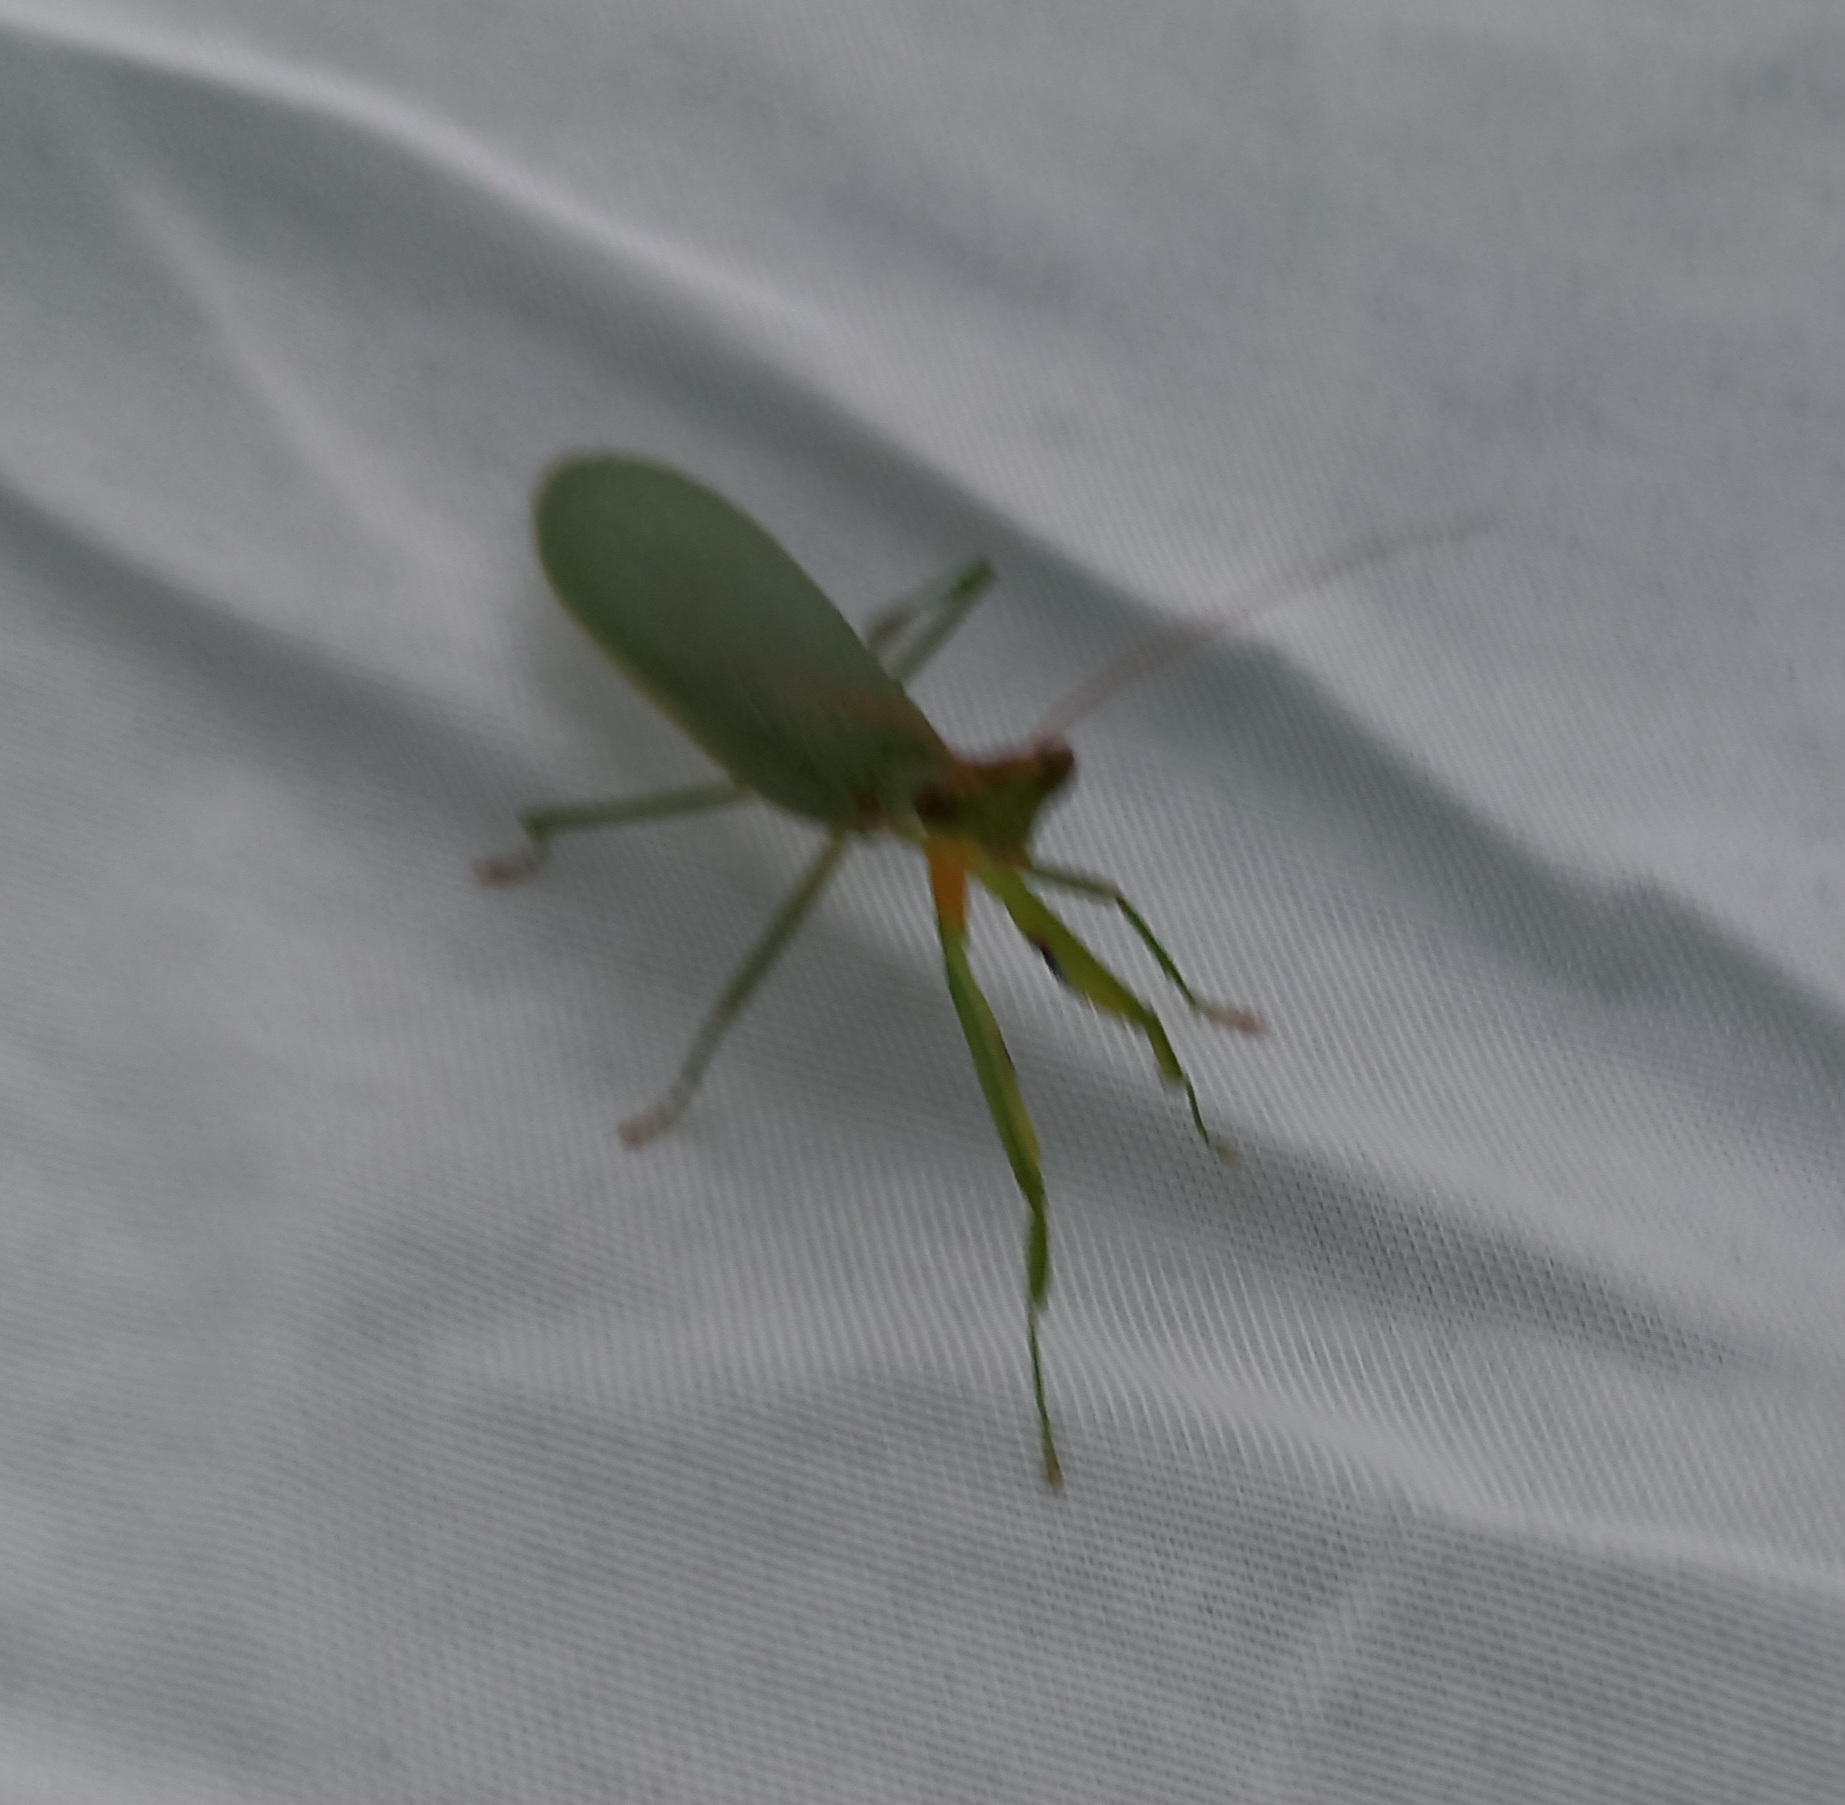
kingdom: Animalia
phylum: Arthropoda
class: Insecta
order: Mantodea
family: Mantidae
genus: Orthodera
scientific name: Orthodera novaezealandiae
